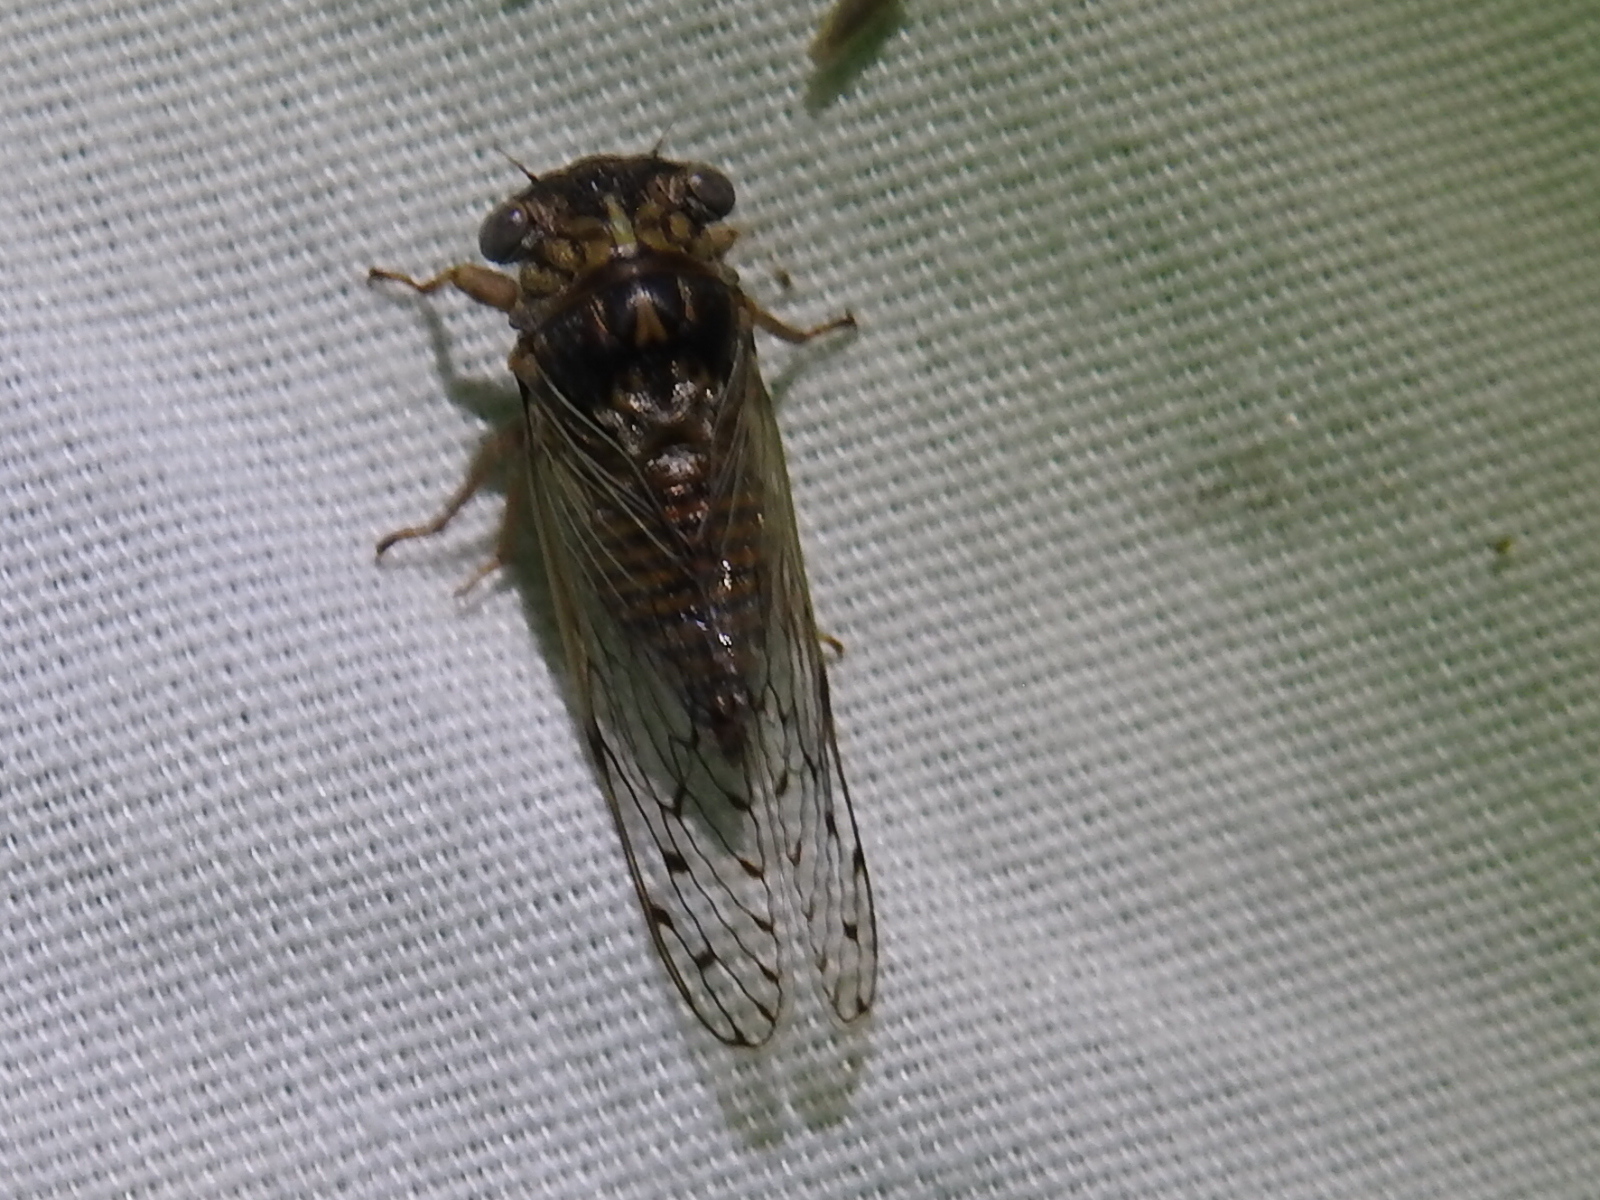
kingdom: Animalia
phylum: Arthropoda
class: Insecta
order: Hemiptera
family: Cicadidae
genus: Pacarina
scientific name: Pacarina puella
